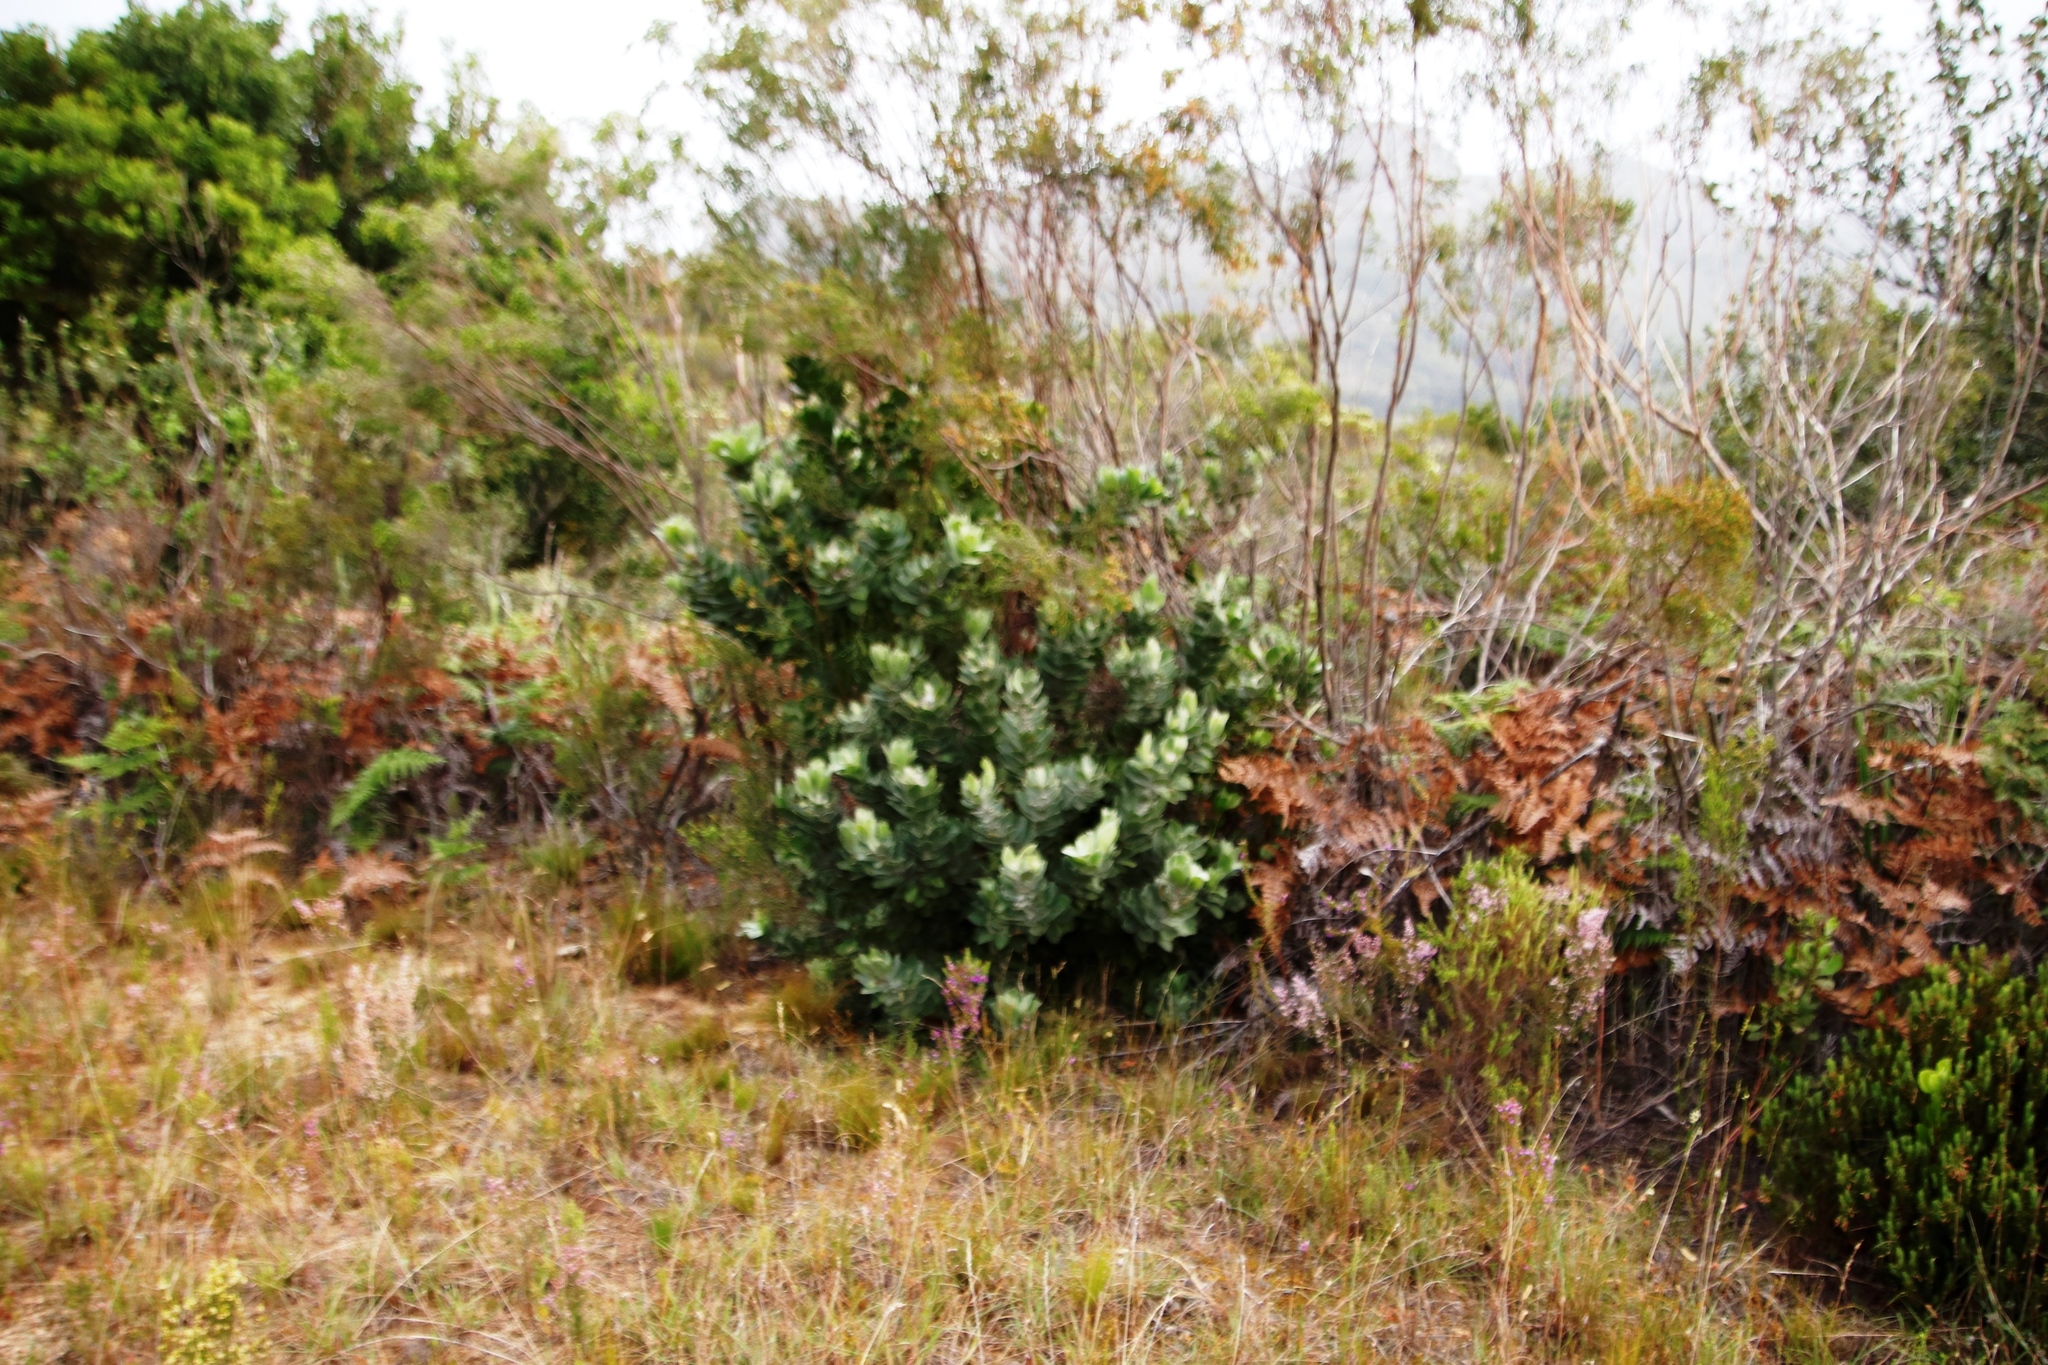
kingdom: Plantae
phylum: Tracheophyta
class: Magnoliopsida
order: Proteales
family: Proteaceae
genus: Leucospermum
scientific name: Leucospermum conocarpodendron
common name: Tree pincushion
